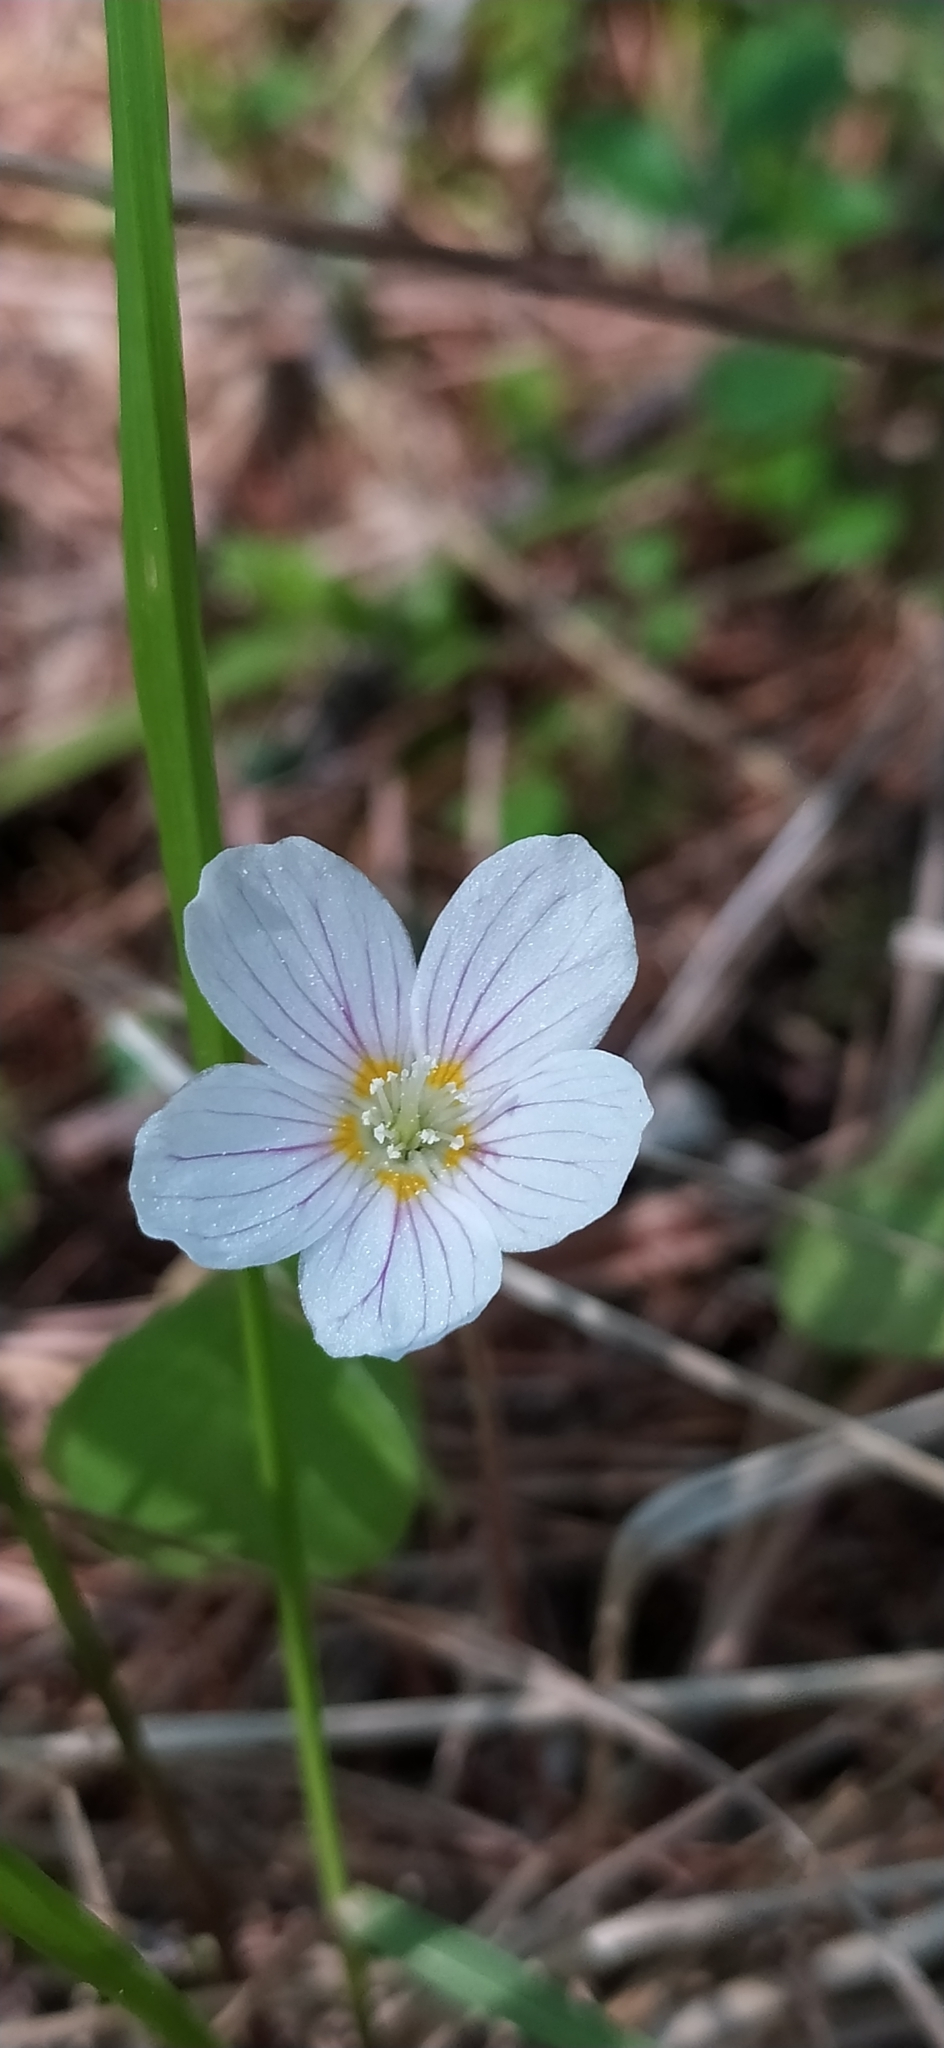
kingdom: Plantae
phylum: Tracheophyta
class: Magnoliopsida
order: Oxalidales
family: Oxalidaceae
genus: Oxalis
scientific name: Oxalis acetosella
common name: Wood-sorrel
